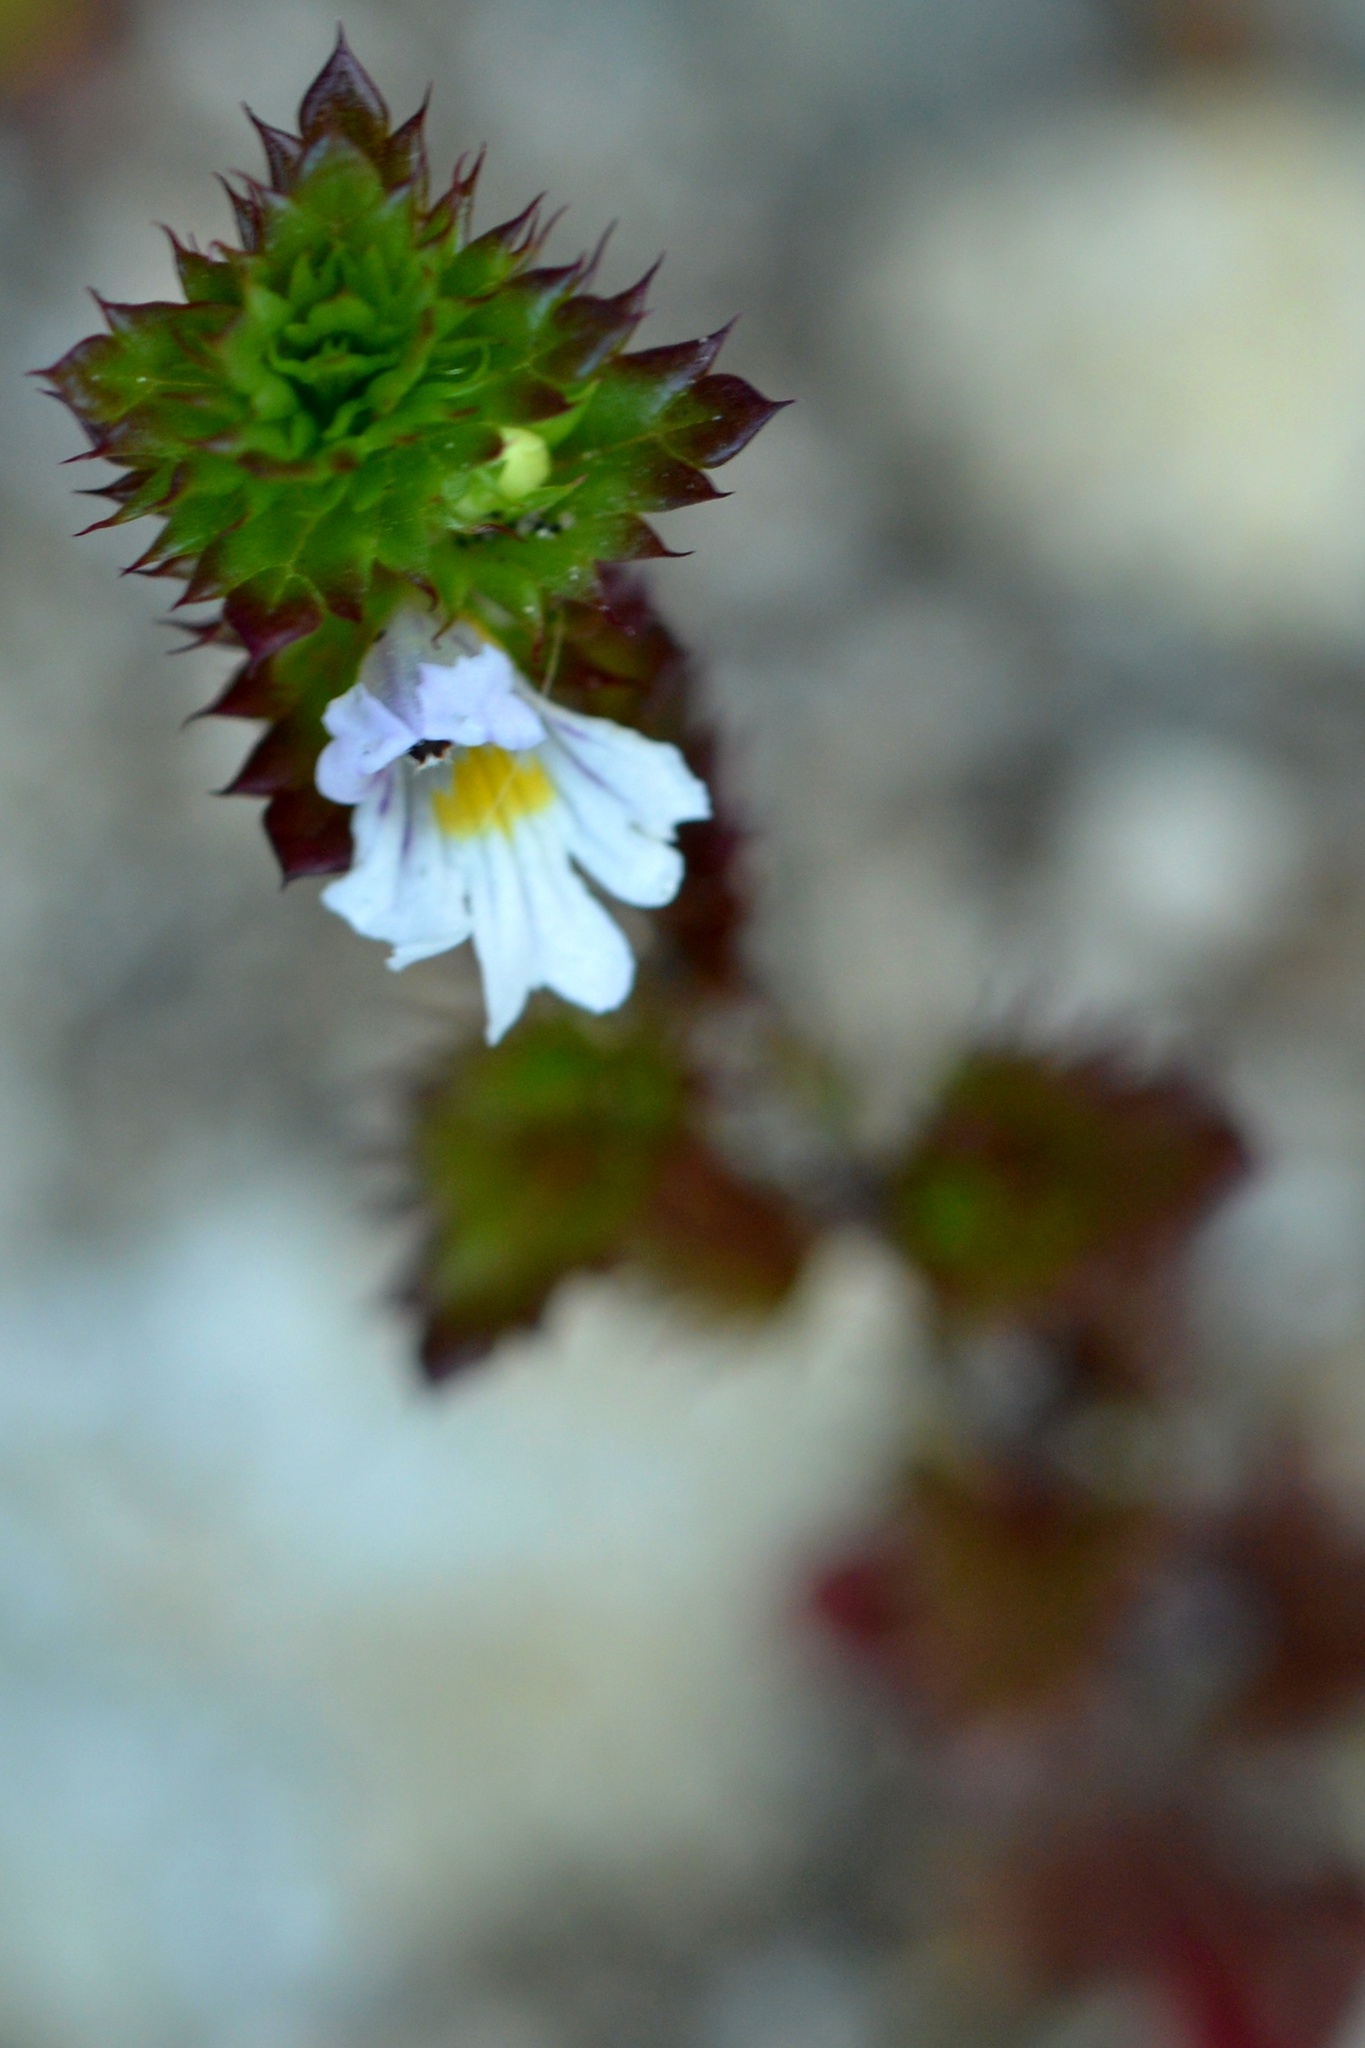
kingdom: Plantae
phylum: Tracheophyta
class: Magnoliopsida
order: Lamiales
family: Orobanchaceae
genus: Euphrasia
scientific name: Euphrasia stricta
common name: Drug eyebright
